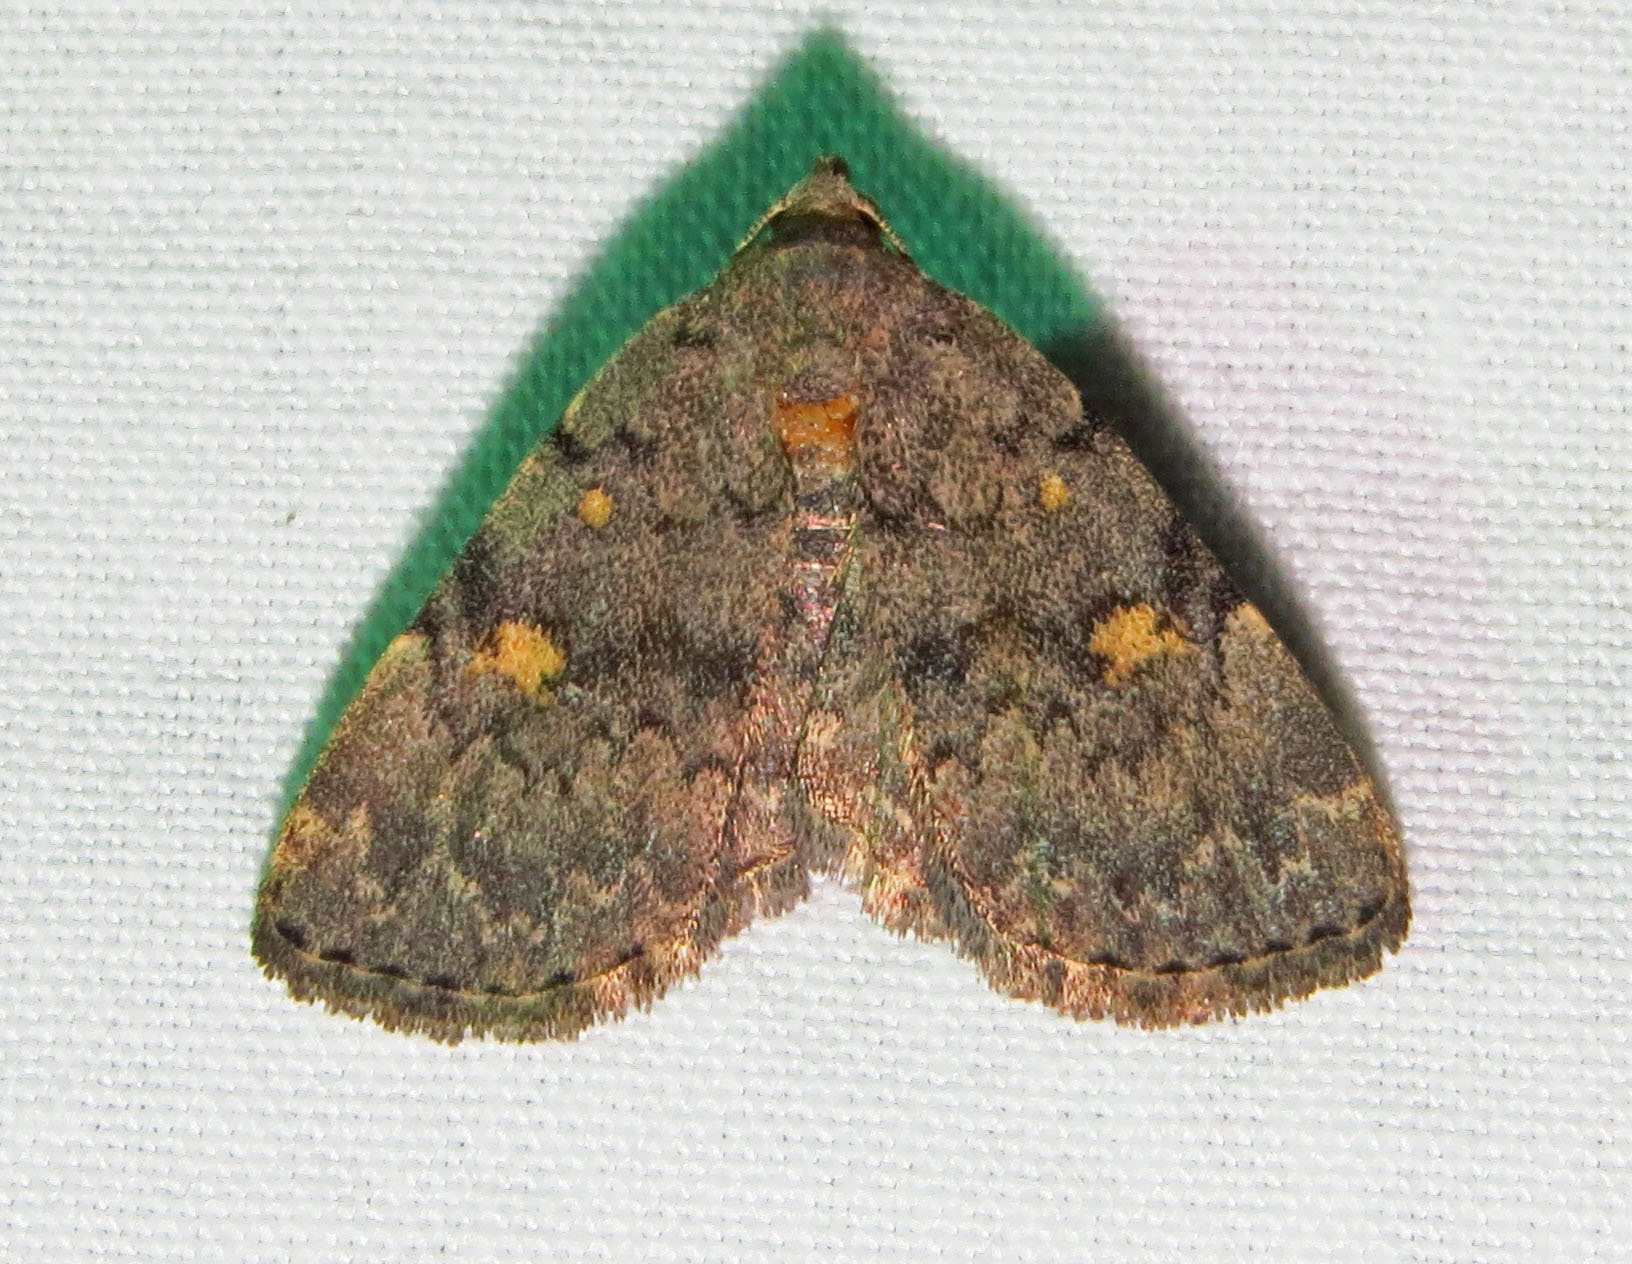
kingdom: Animalia
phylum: Arthropoda
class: Insecta
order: Lepidoptera
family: Erebidae
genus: Idia
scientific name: Idia aemula
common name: Common idia moth
